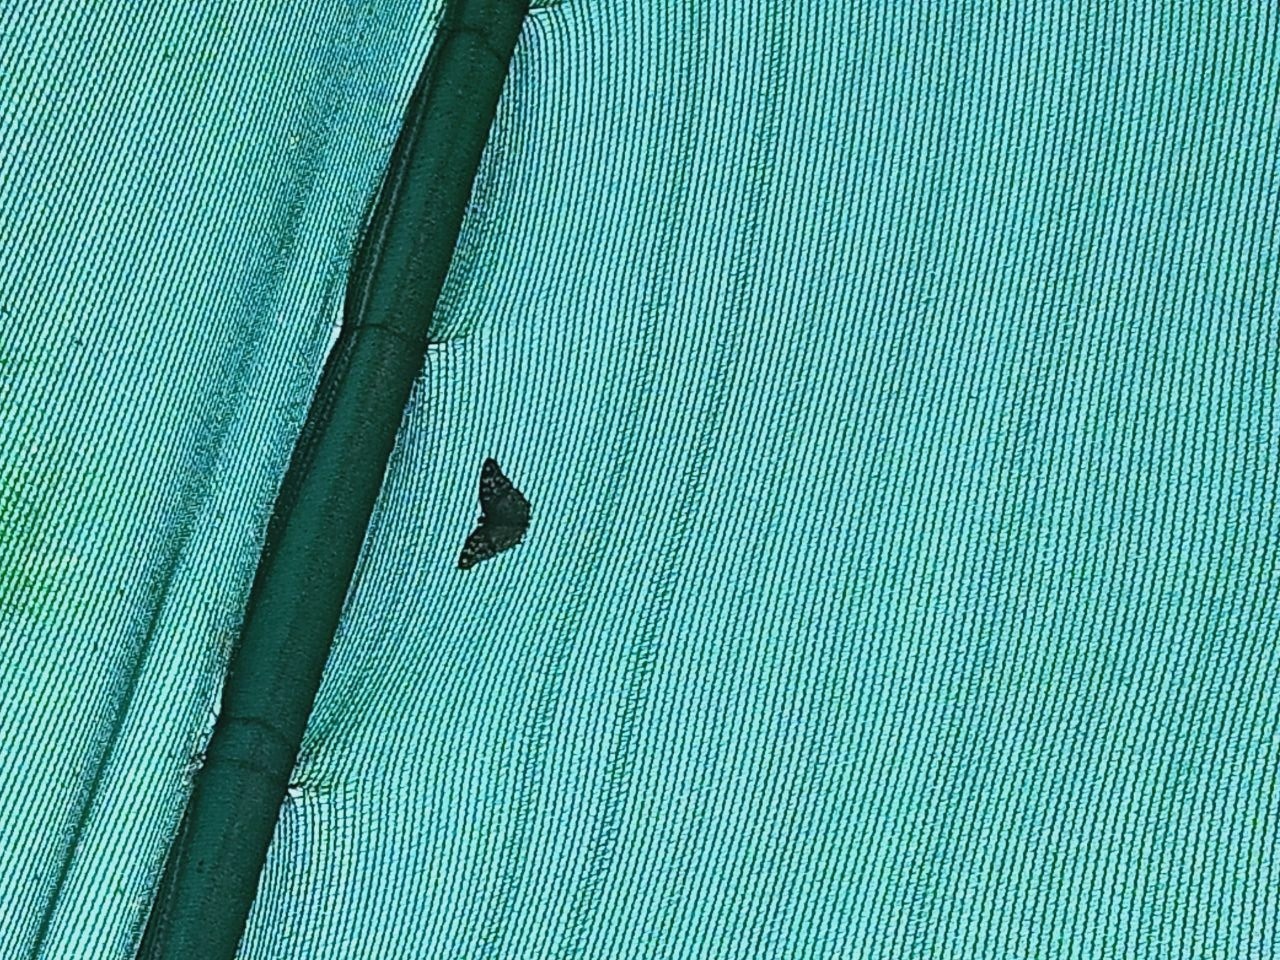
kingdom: Animalia
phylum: Arthropoda
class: Insecta
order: Lepidoptera
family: Nymphalidae
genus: Junonia
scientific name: Junonia lemonias
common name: Lemon pansy
